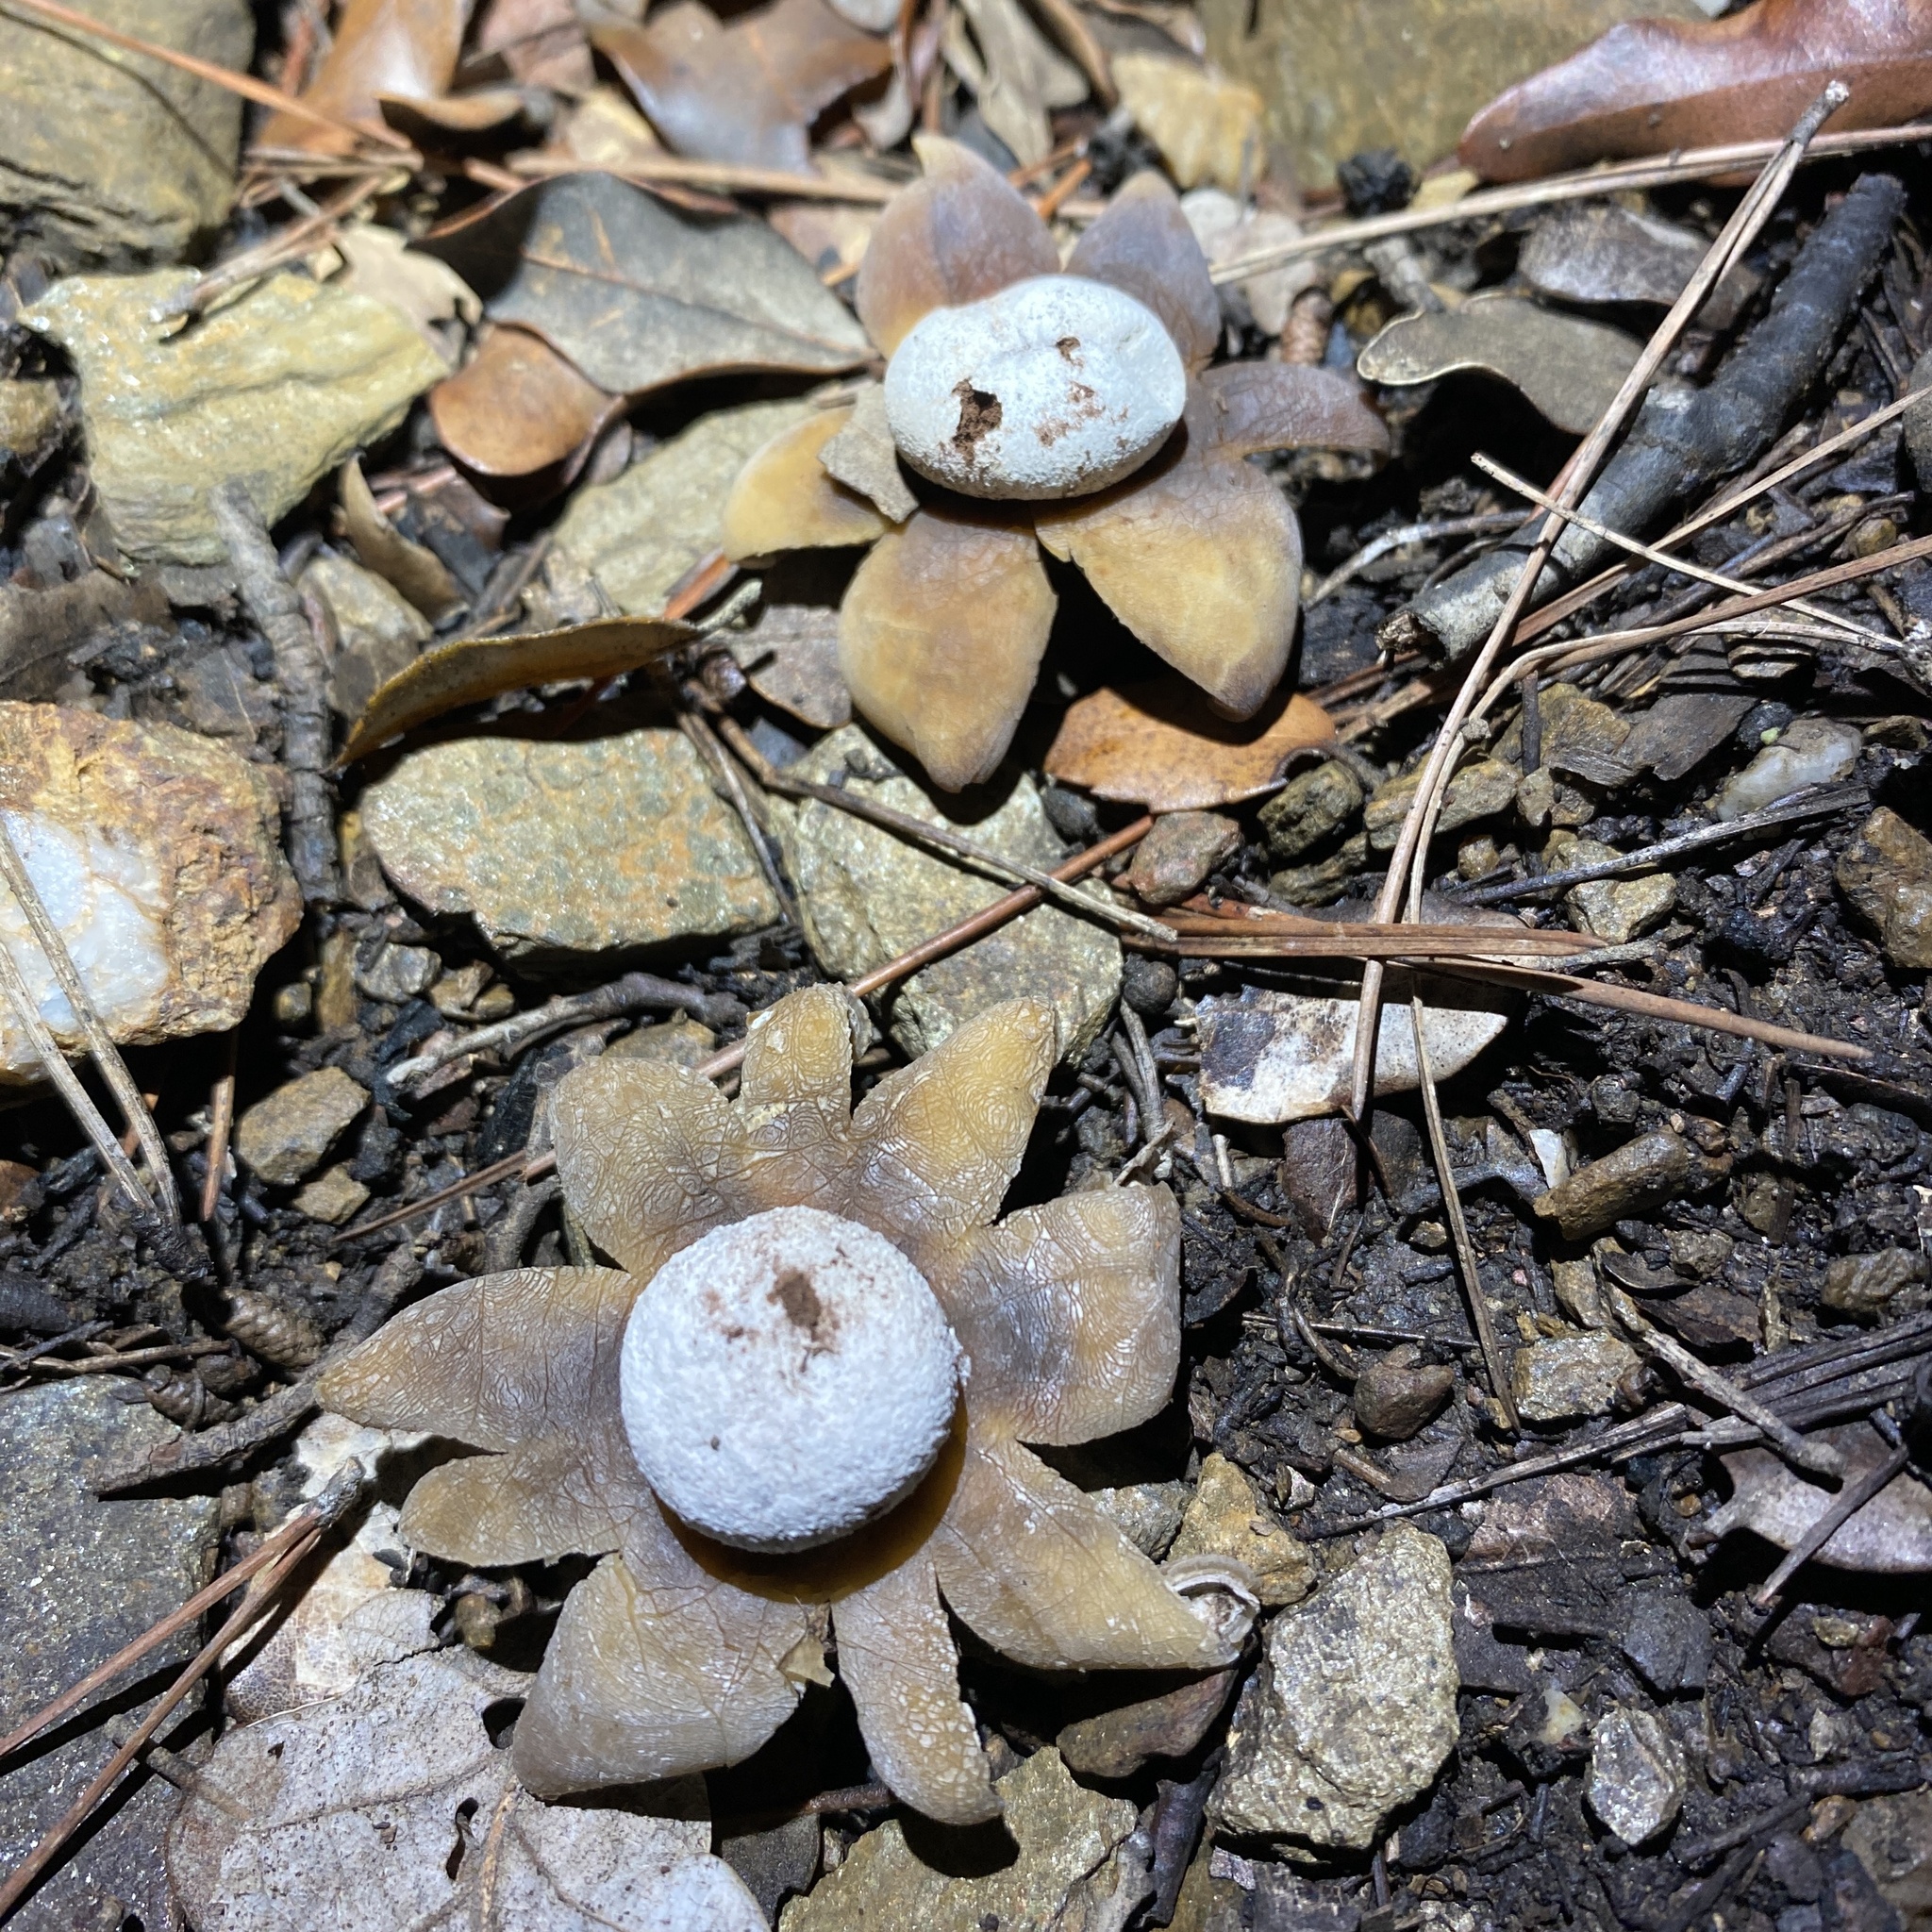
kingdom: Fungi
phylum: Basidiomycota
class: Agaricomycetes
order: Boletales
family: Diplocystidiaceae
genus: Astraeus
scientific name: Astraeus hygrometricus
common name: Barometer earthstar
